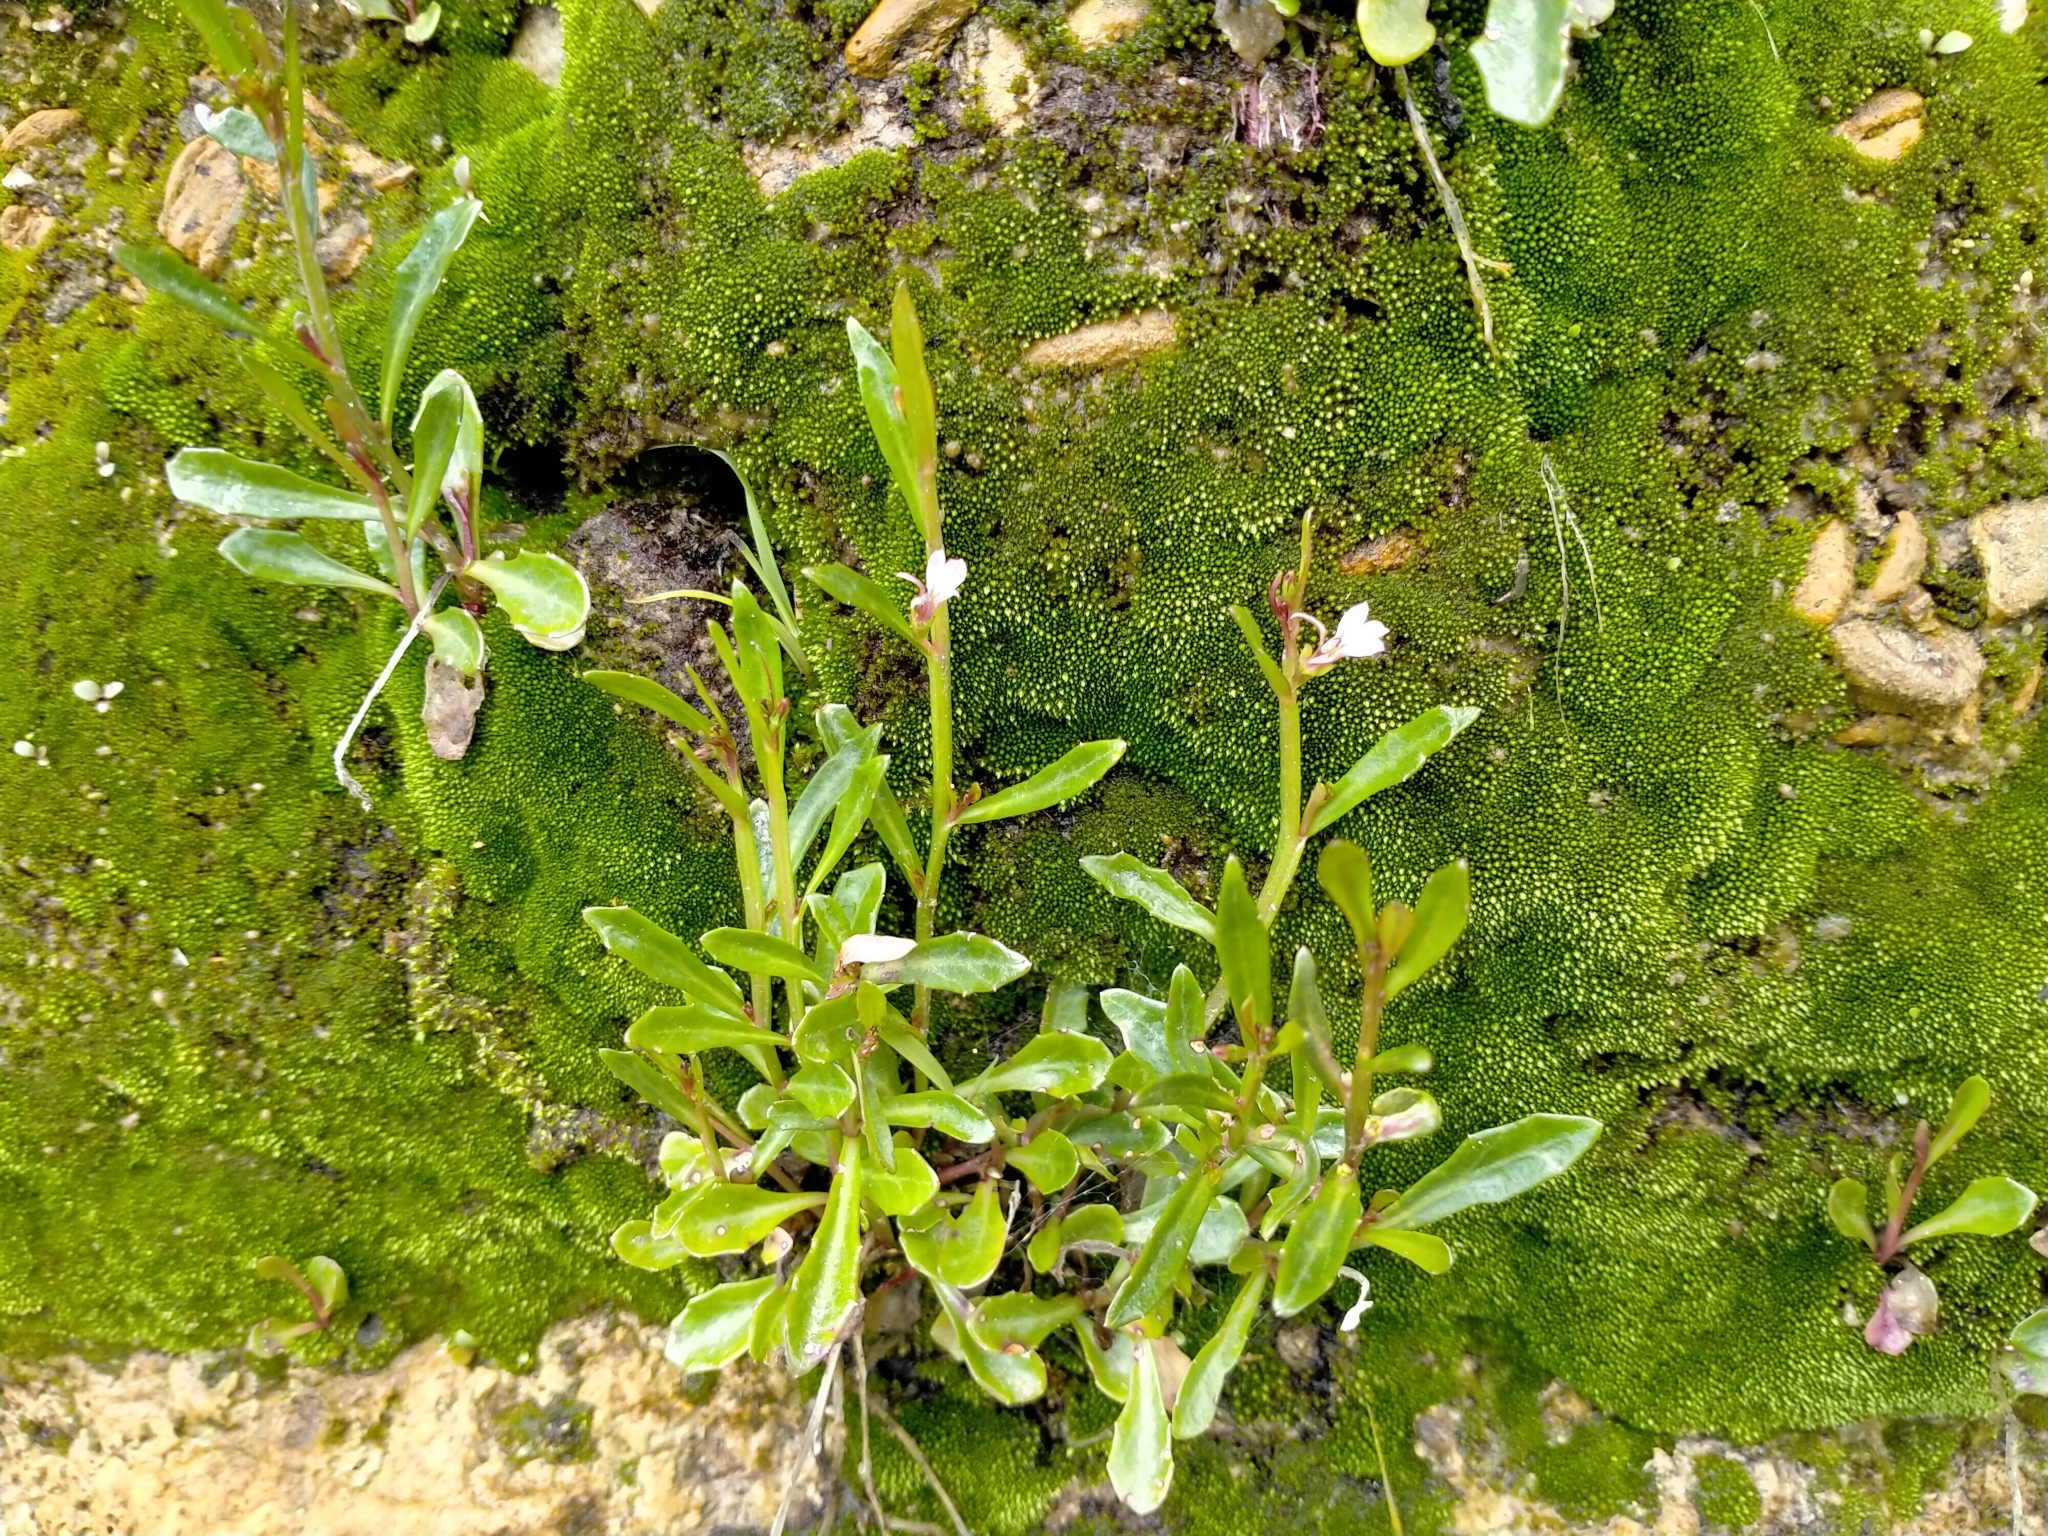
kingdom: Plantae
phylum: Tracheophyta
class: Magnoliopsida
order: Asterales
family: Campanulaceae
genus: Lobelia
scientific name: Lobelia anceps
